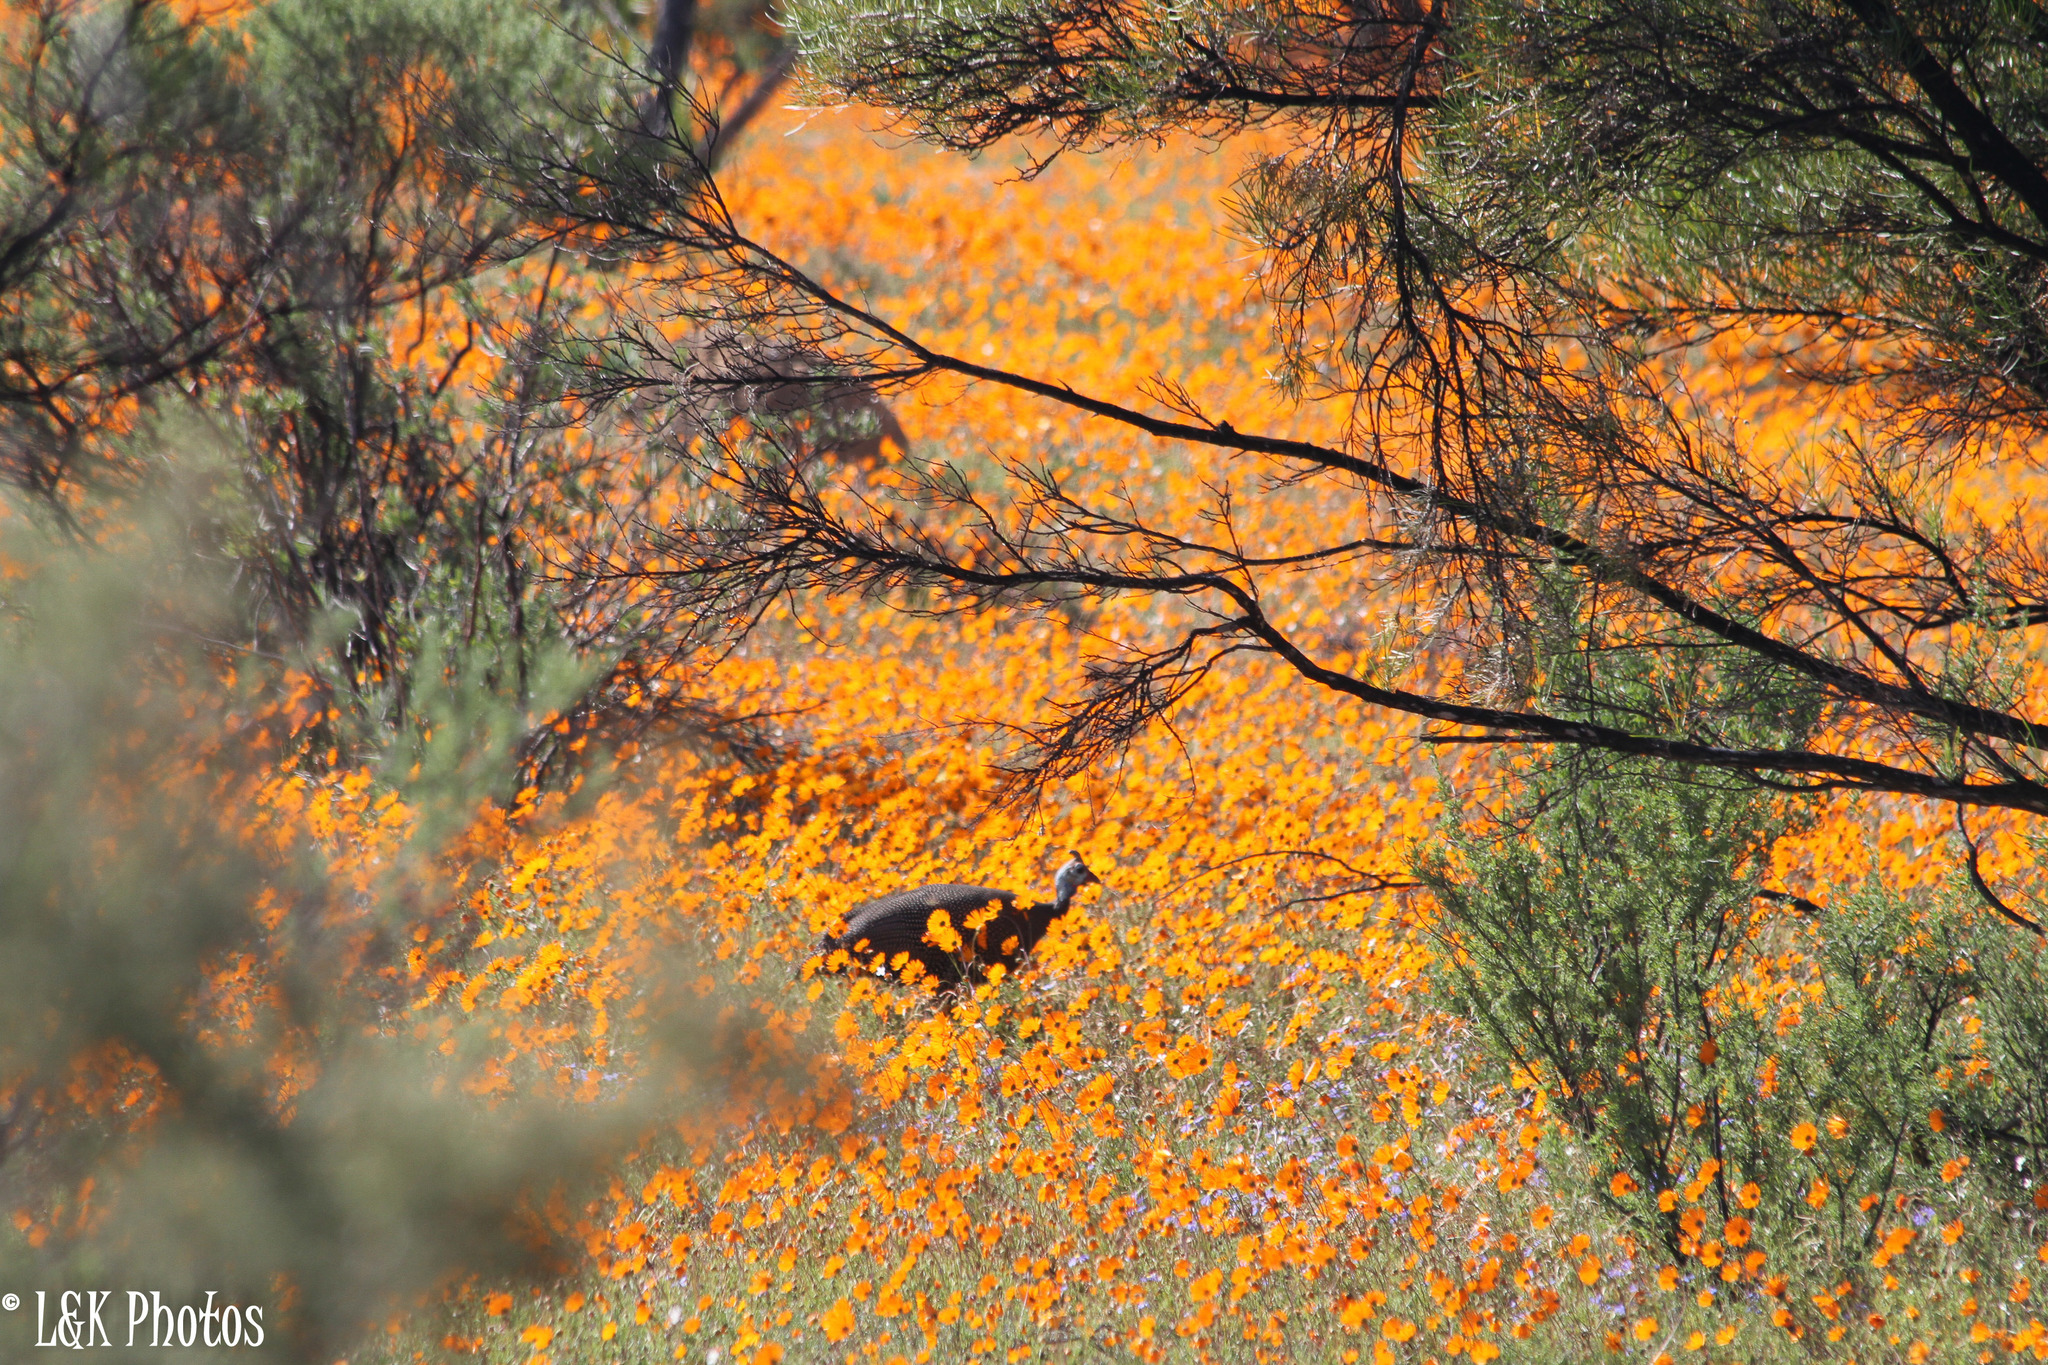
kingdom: Animalia
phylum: Chordata
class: Aves
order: Galliformes
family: Numididae
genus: Numida
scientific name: Numida meleagris
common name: Helmeted guineafowl
